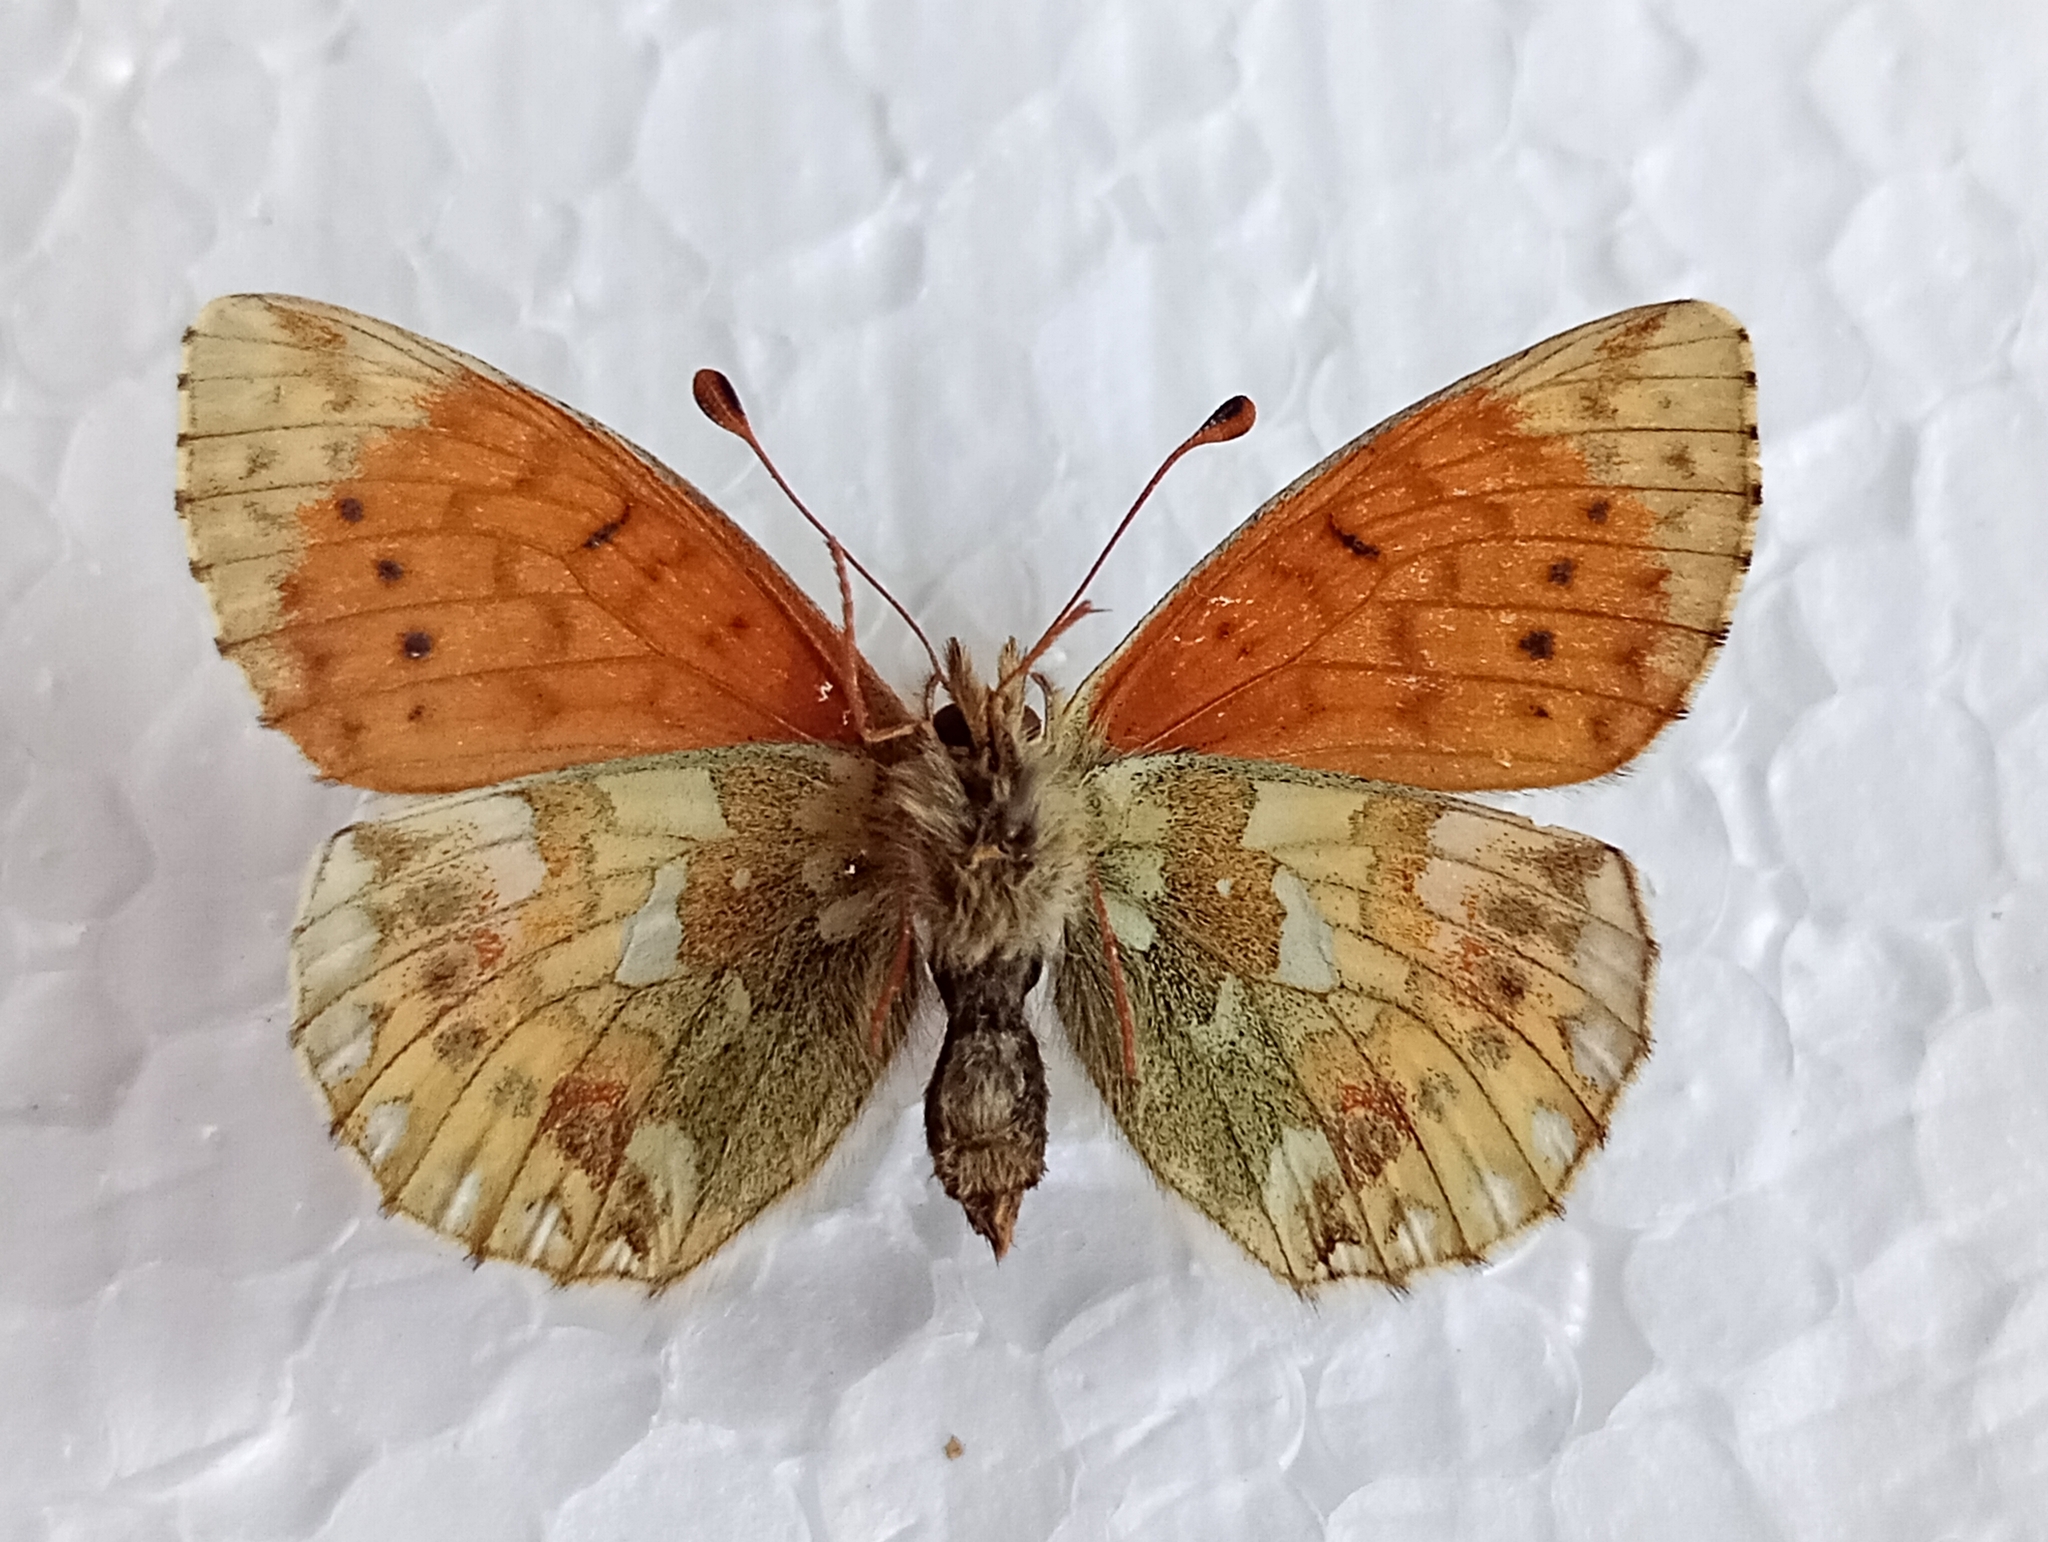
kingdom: Animalia
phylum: Arthropoda
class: Insecta
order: Lepidoptera
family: Nymphalidae
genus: Boloria
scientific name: Boloria napaea
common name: Mountain fritillary
